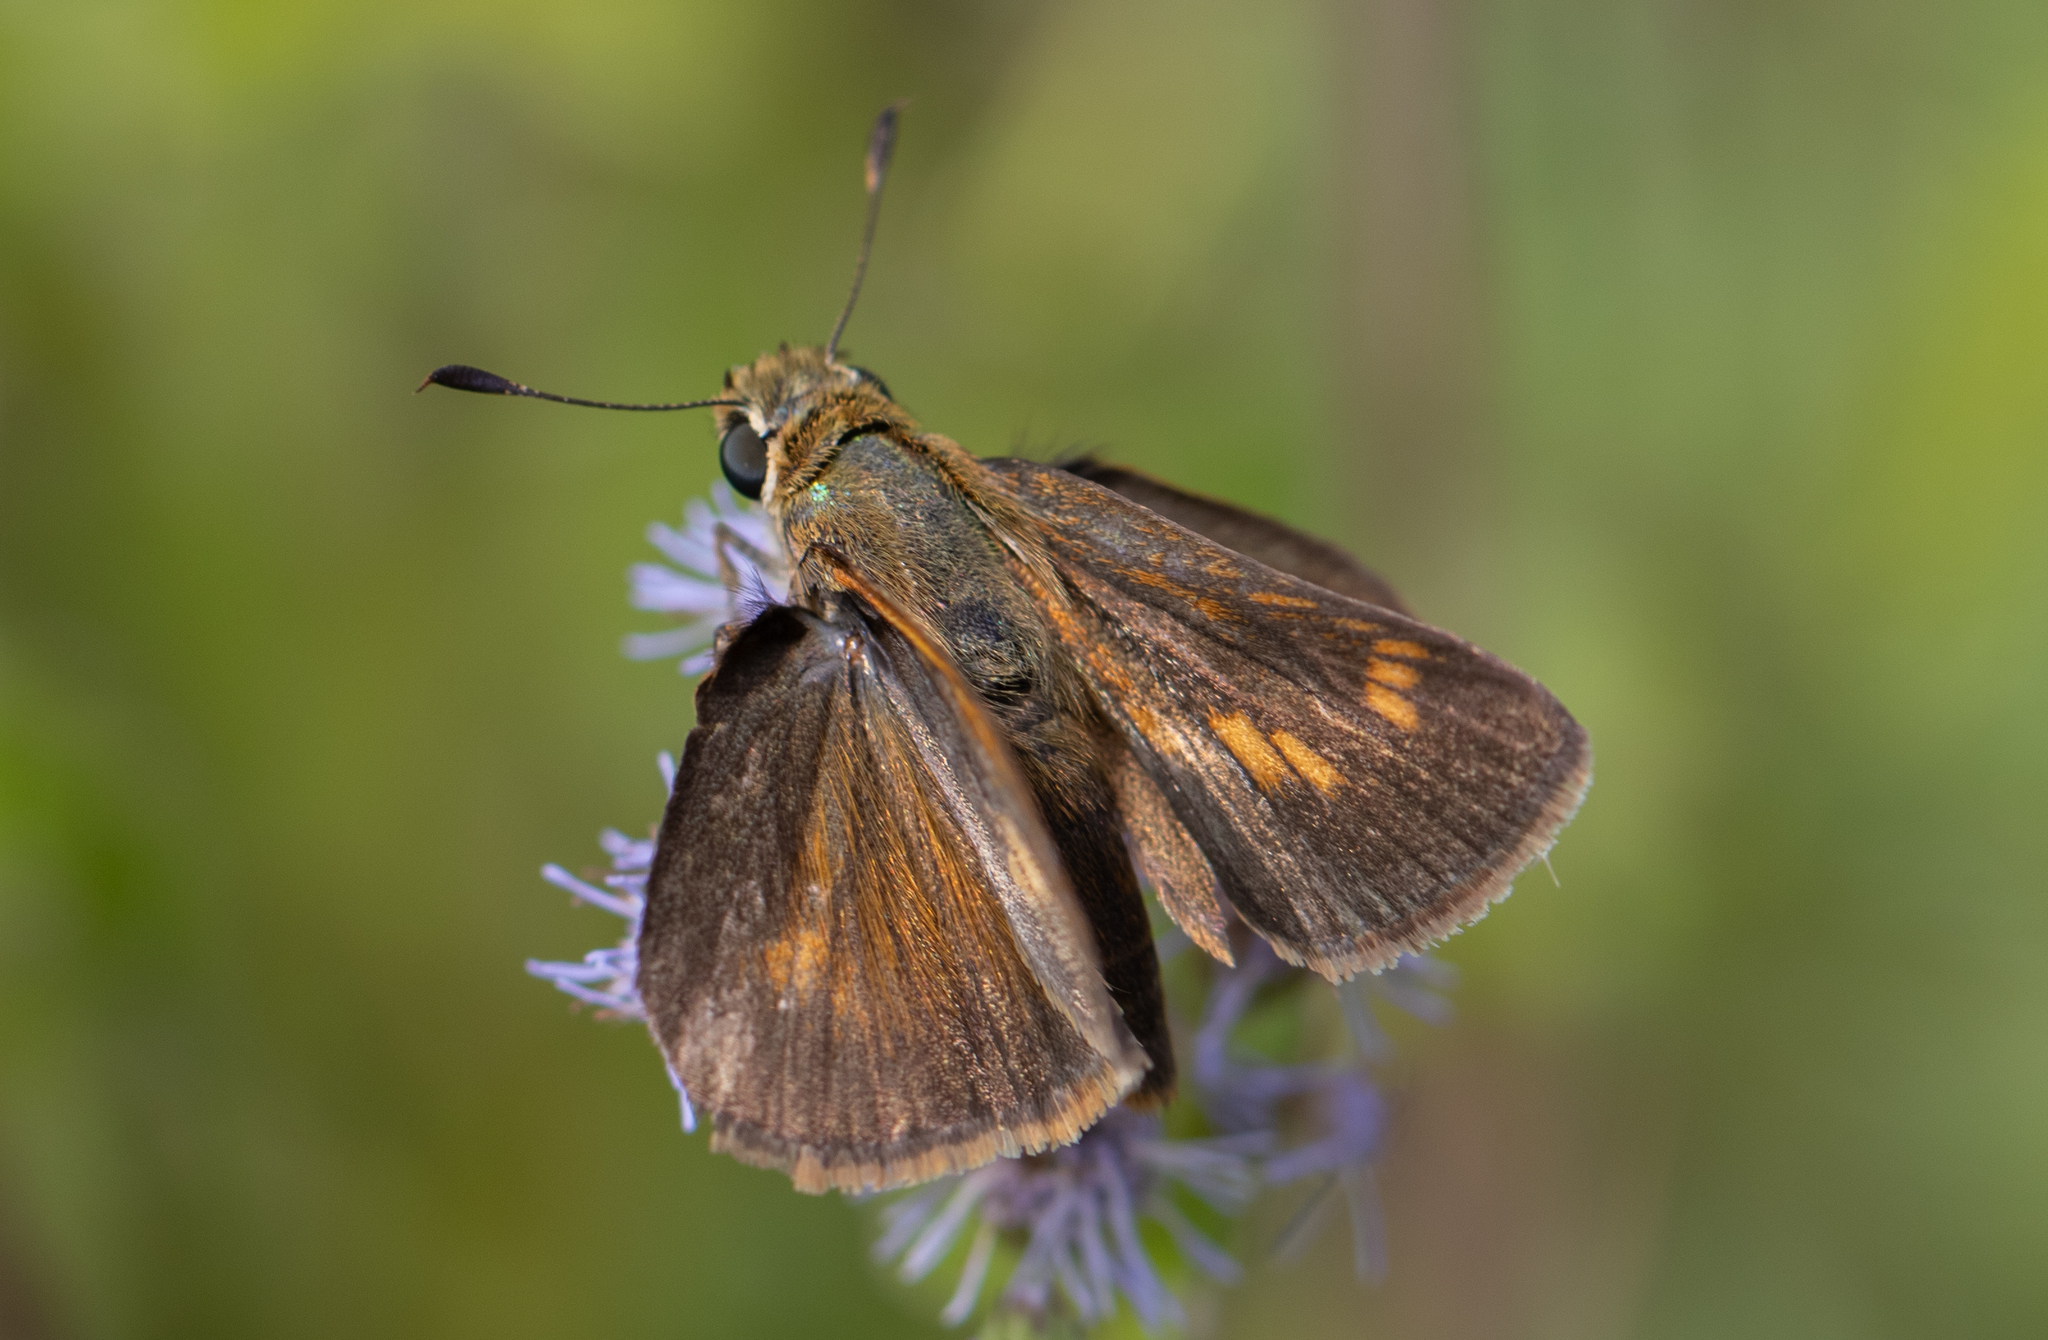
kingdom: Animalia
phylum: Arthropoda
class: Insecta
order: Lepidoptera
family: Hesperiidae
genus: Polites
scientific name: Polites otho
